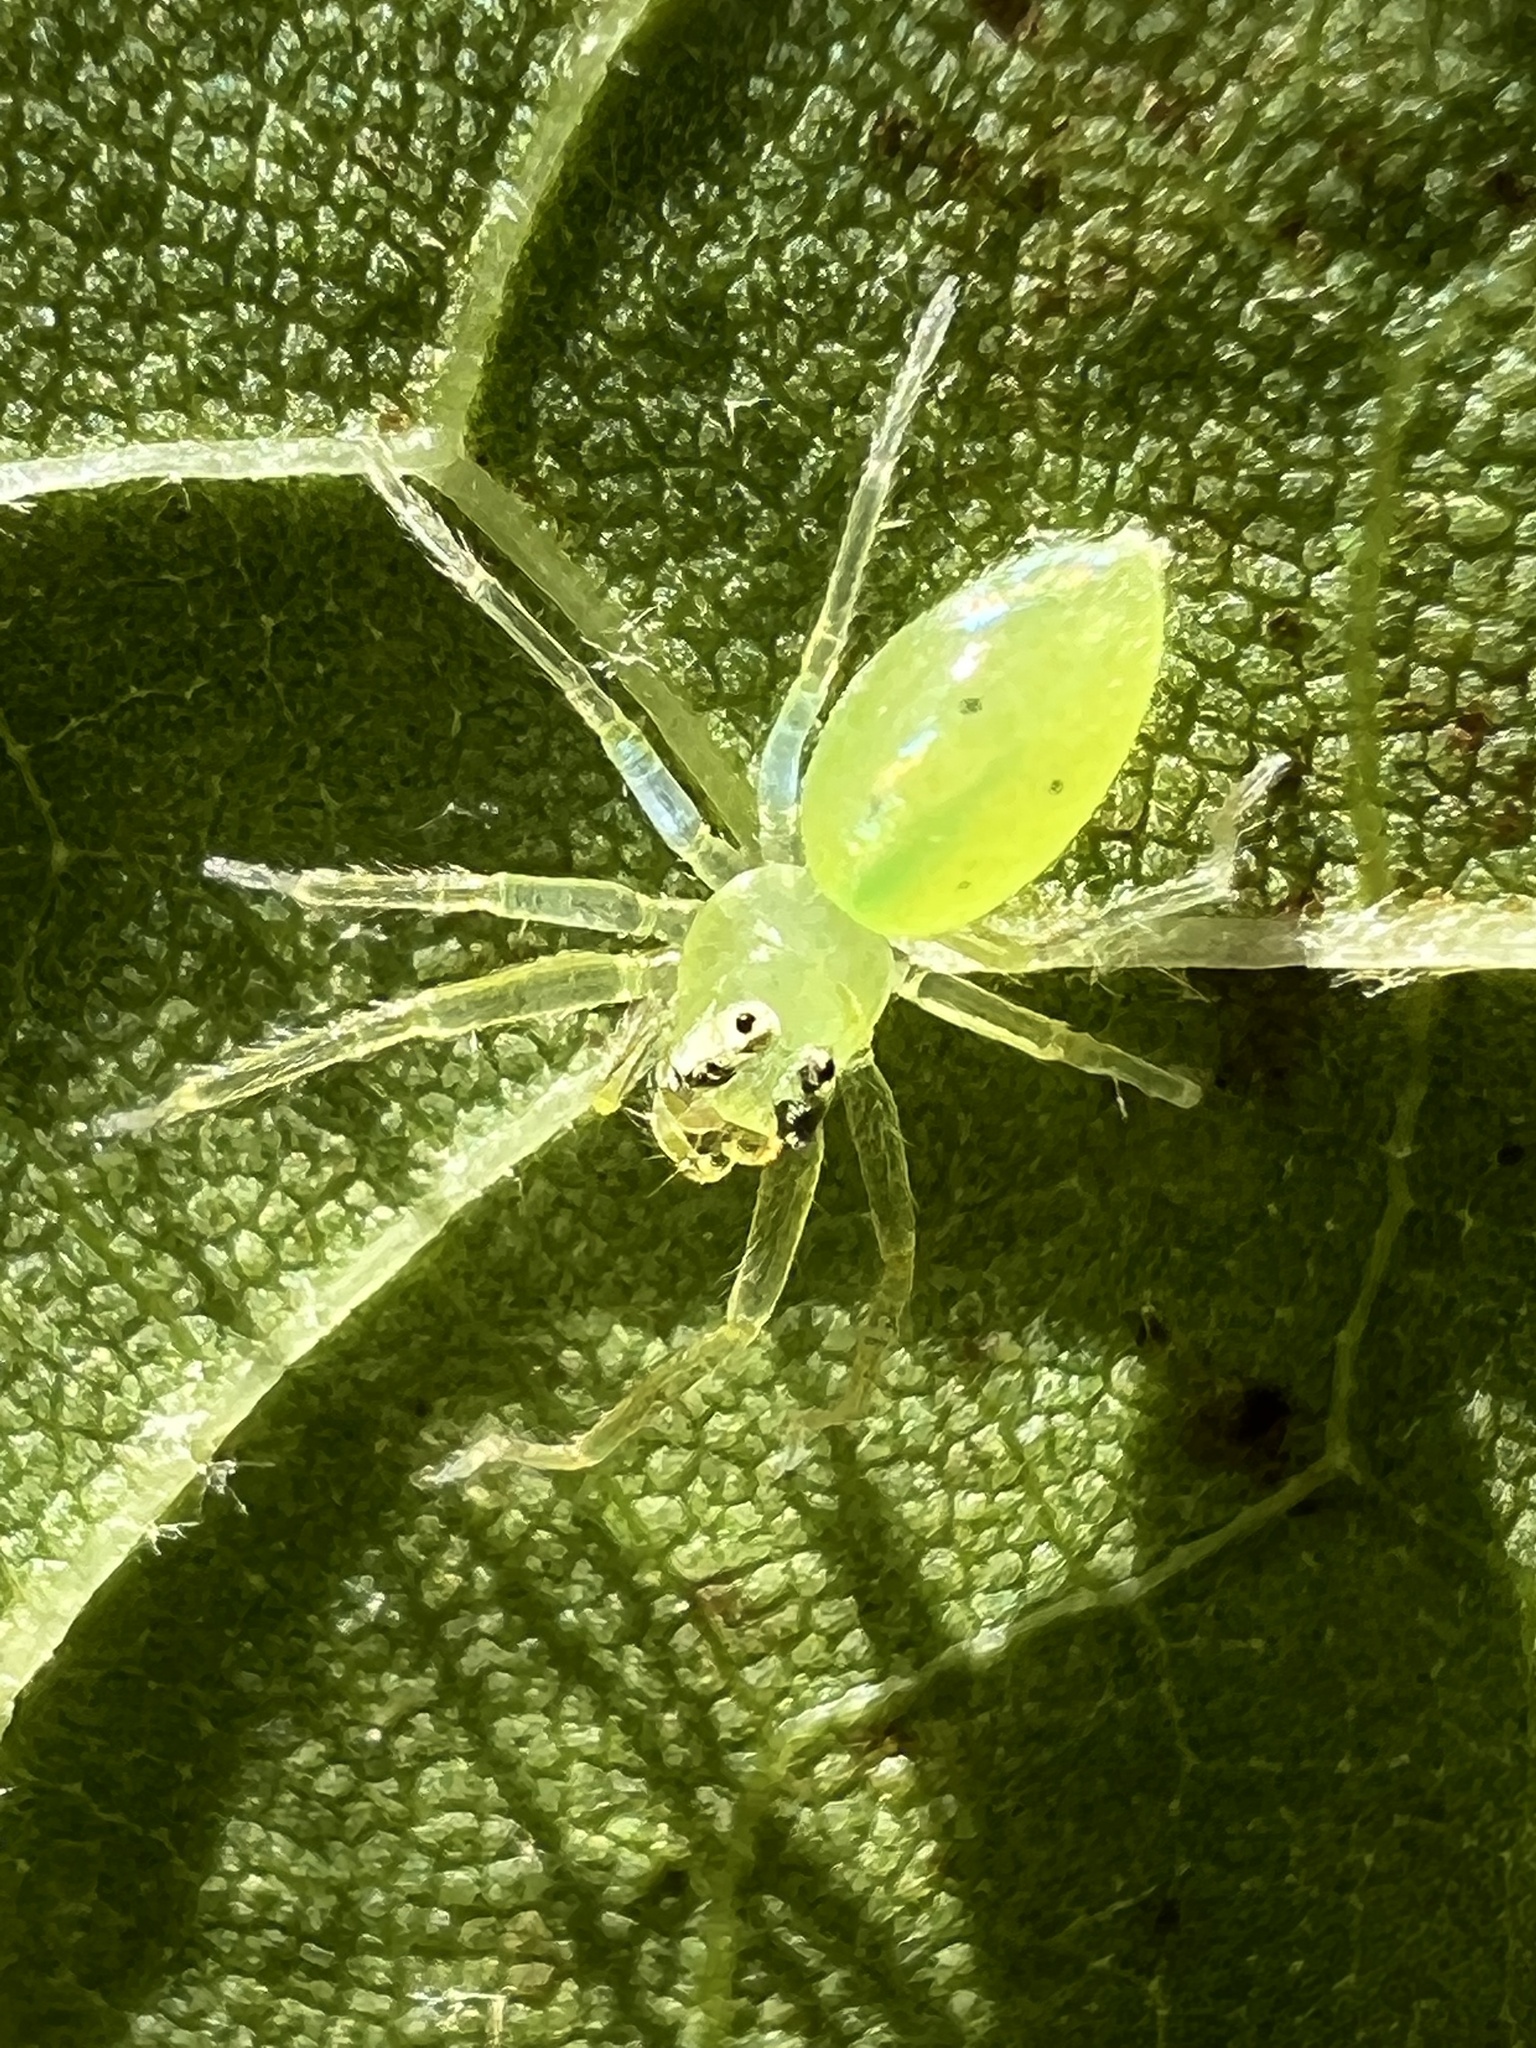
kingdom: Animalia
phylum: Arthropoda
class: Arachnida
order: Araneae
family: Salticidae
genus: Lyssomanes
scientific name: Lyssomanes viridis
